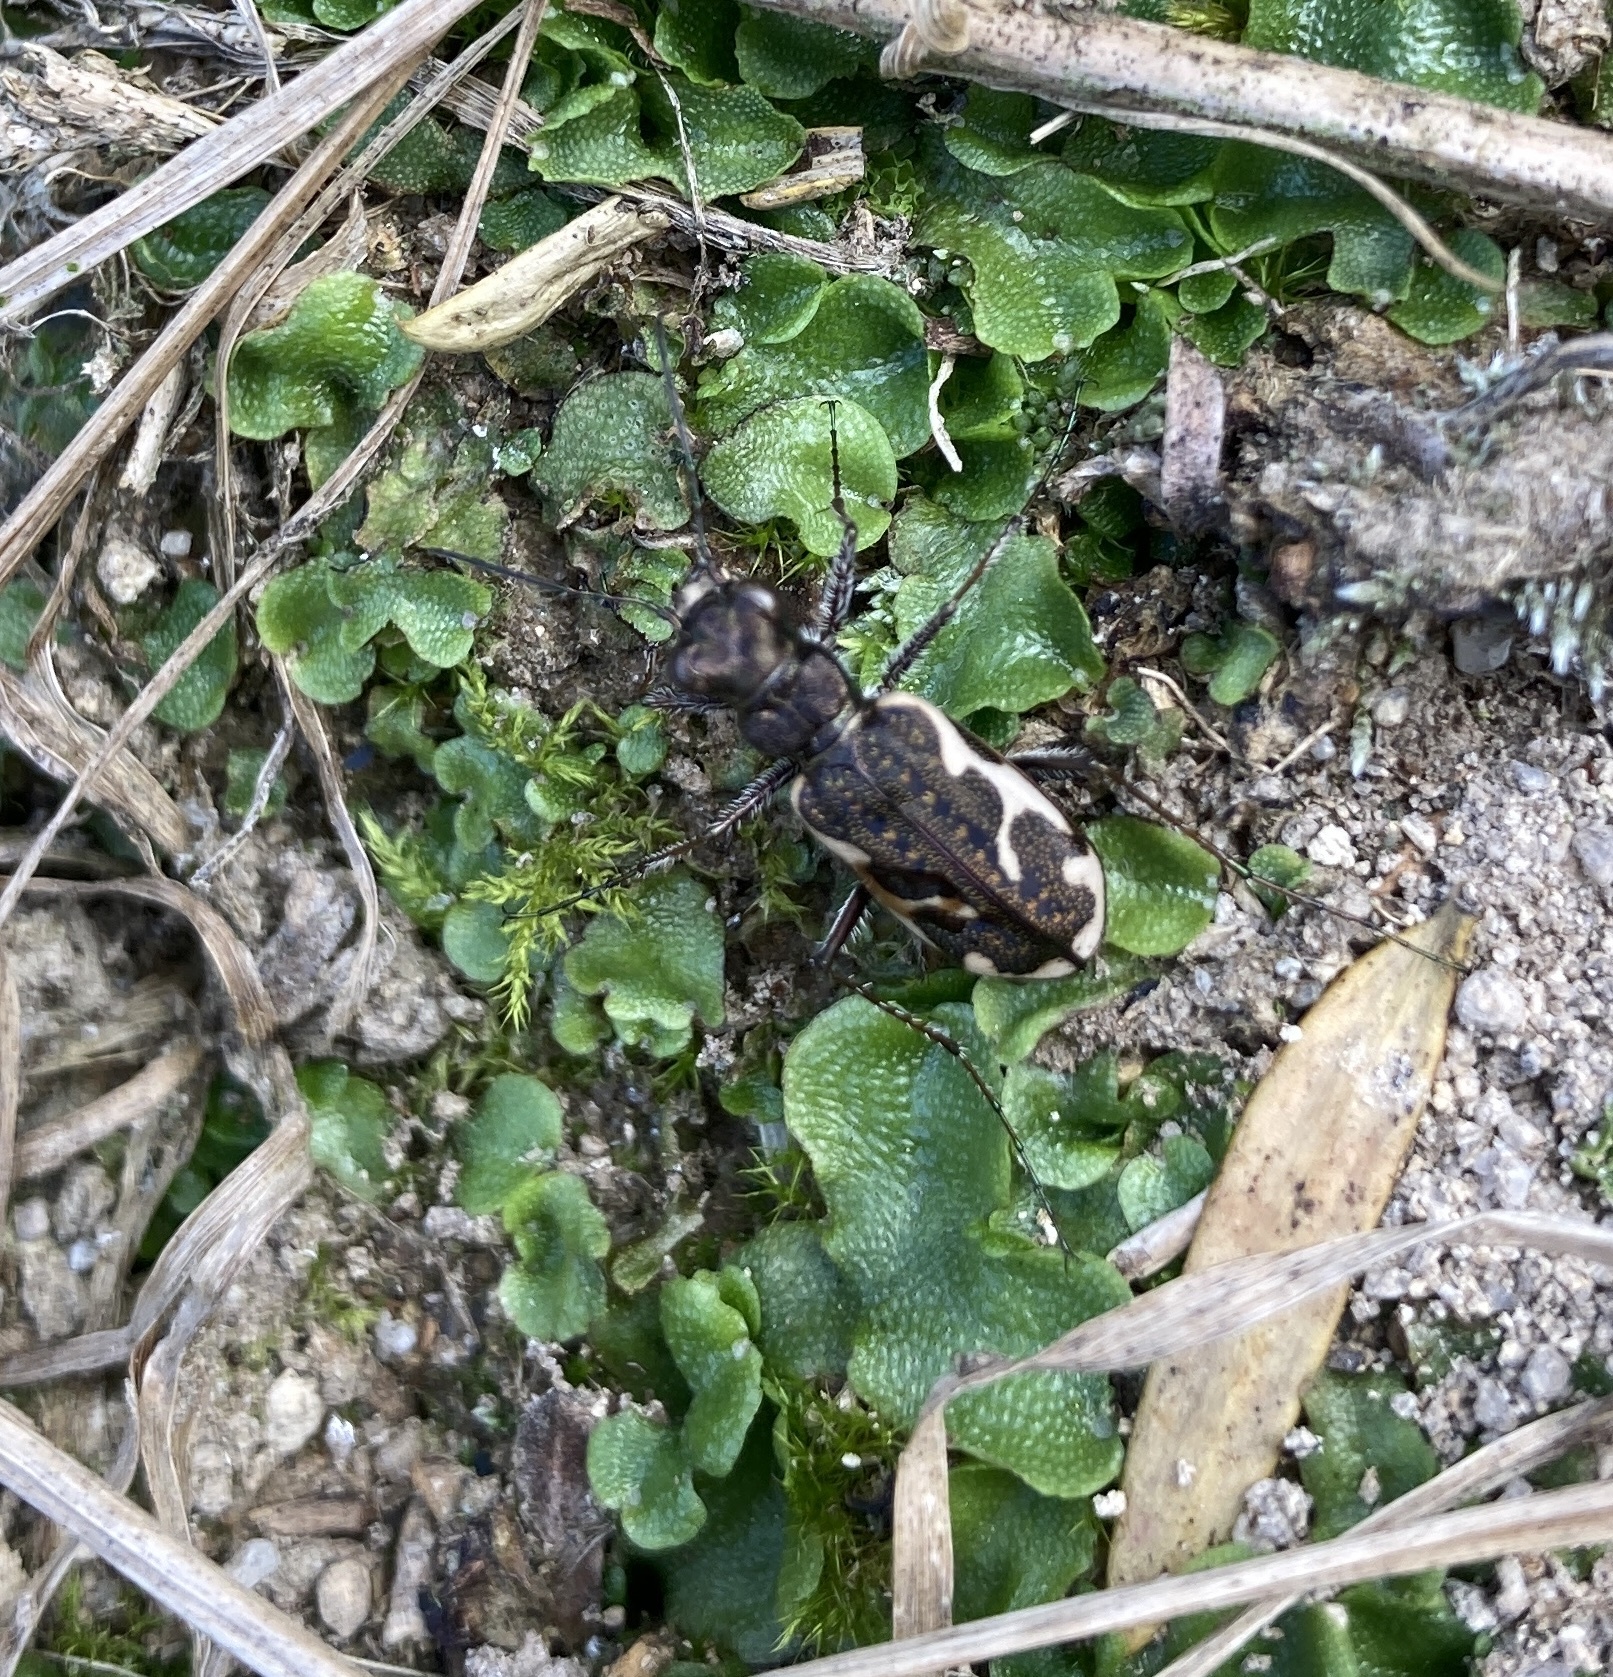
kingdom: Animalia
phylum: Arthropoda
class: Insecta
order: Coleoptera
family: Carabidae
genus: Neocicindela
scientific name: Neocicindela tuberculata
